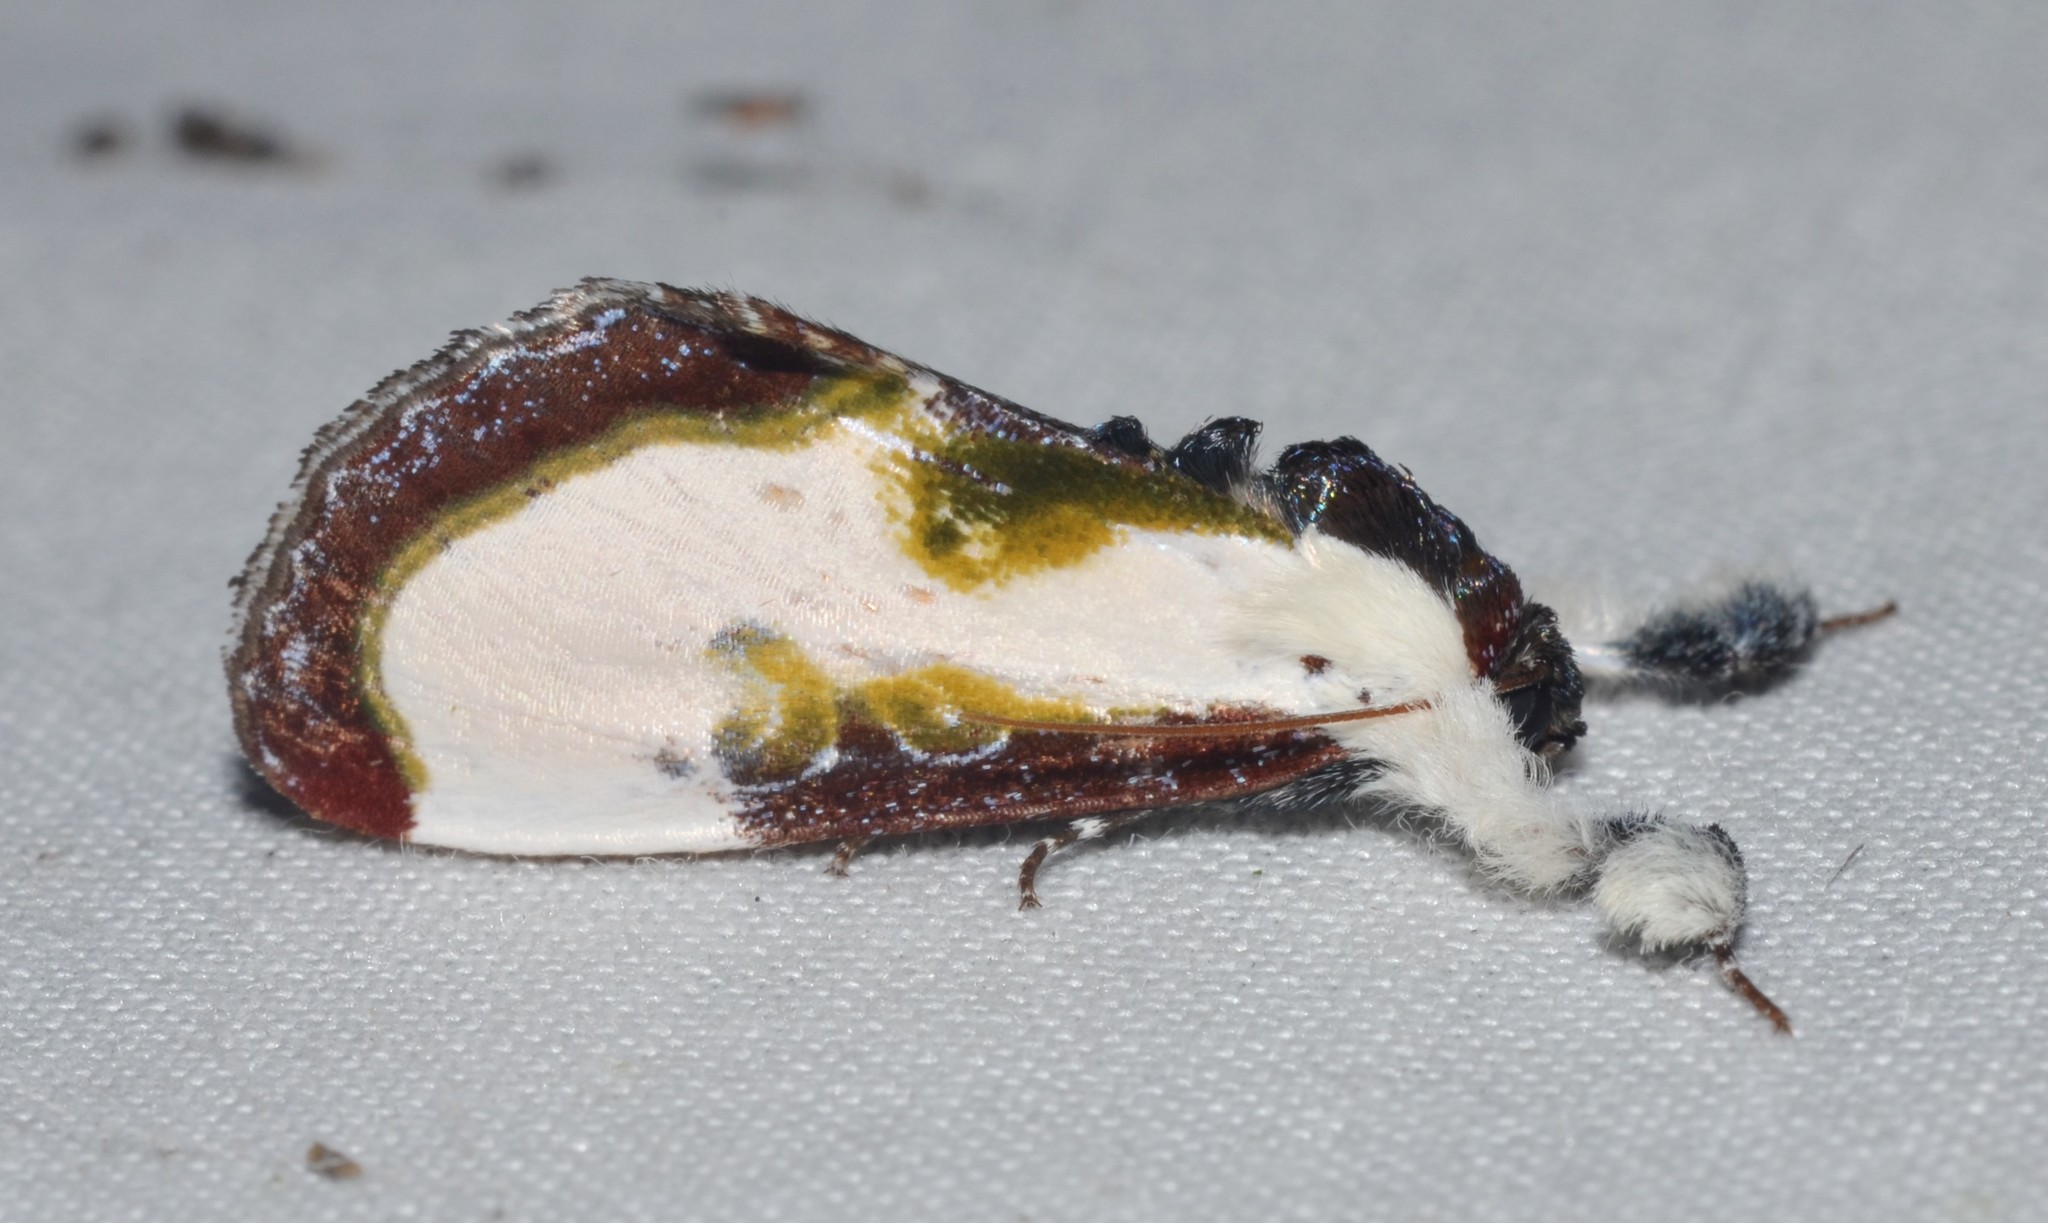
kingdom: Animalia
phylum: Arthropoda
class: Insecta
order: Lepidoptera
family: Noctuidae
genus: Eudryas
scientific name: Eudryas grata
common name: Beautiful wood-nymph
